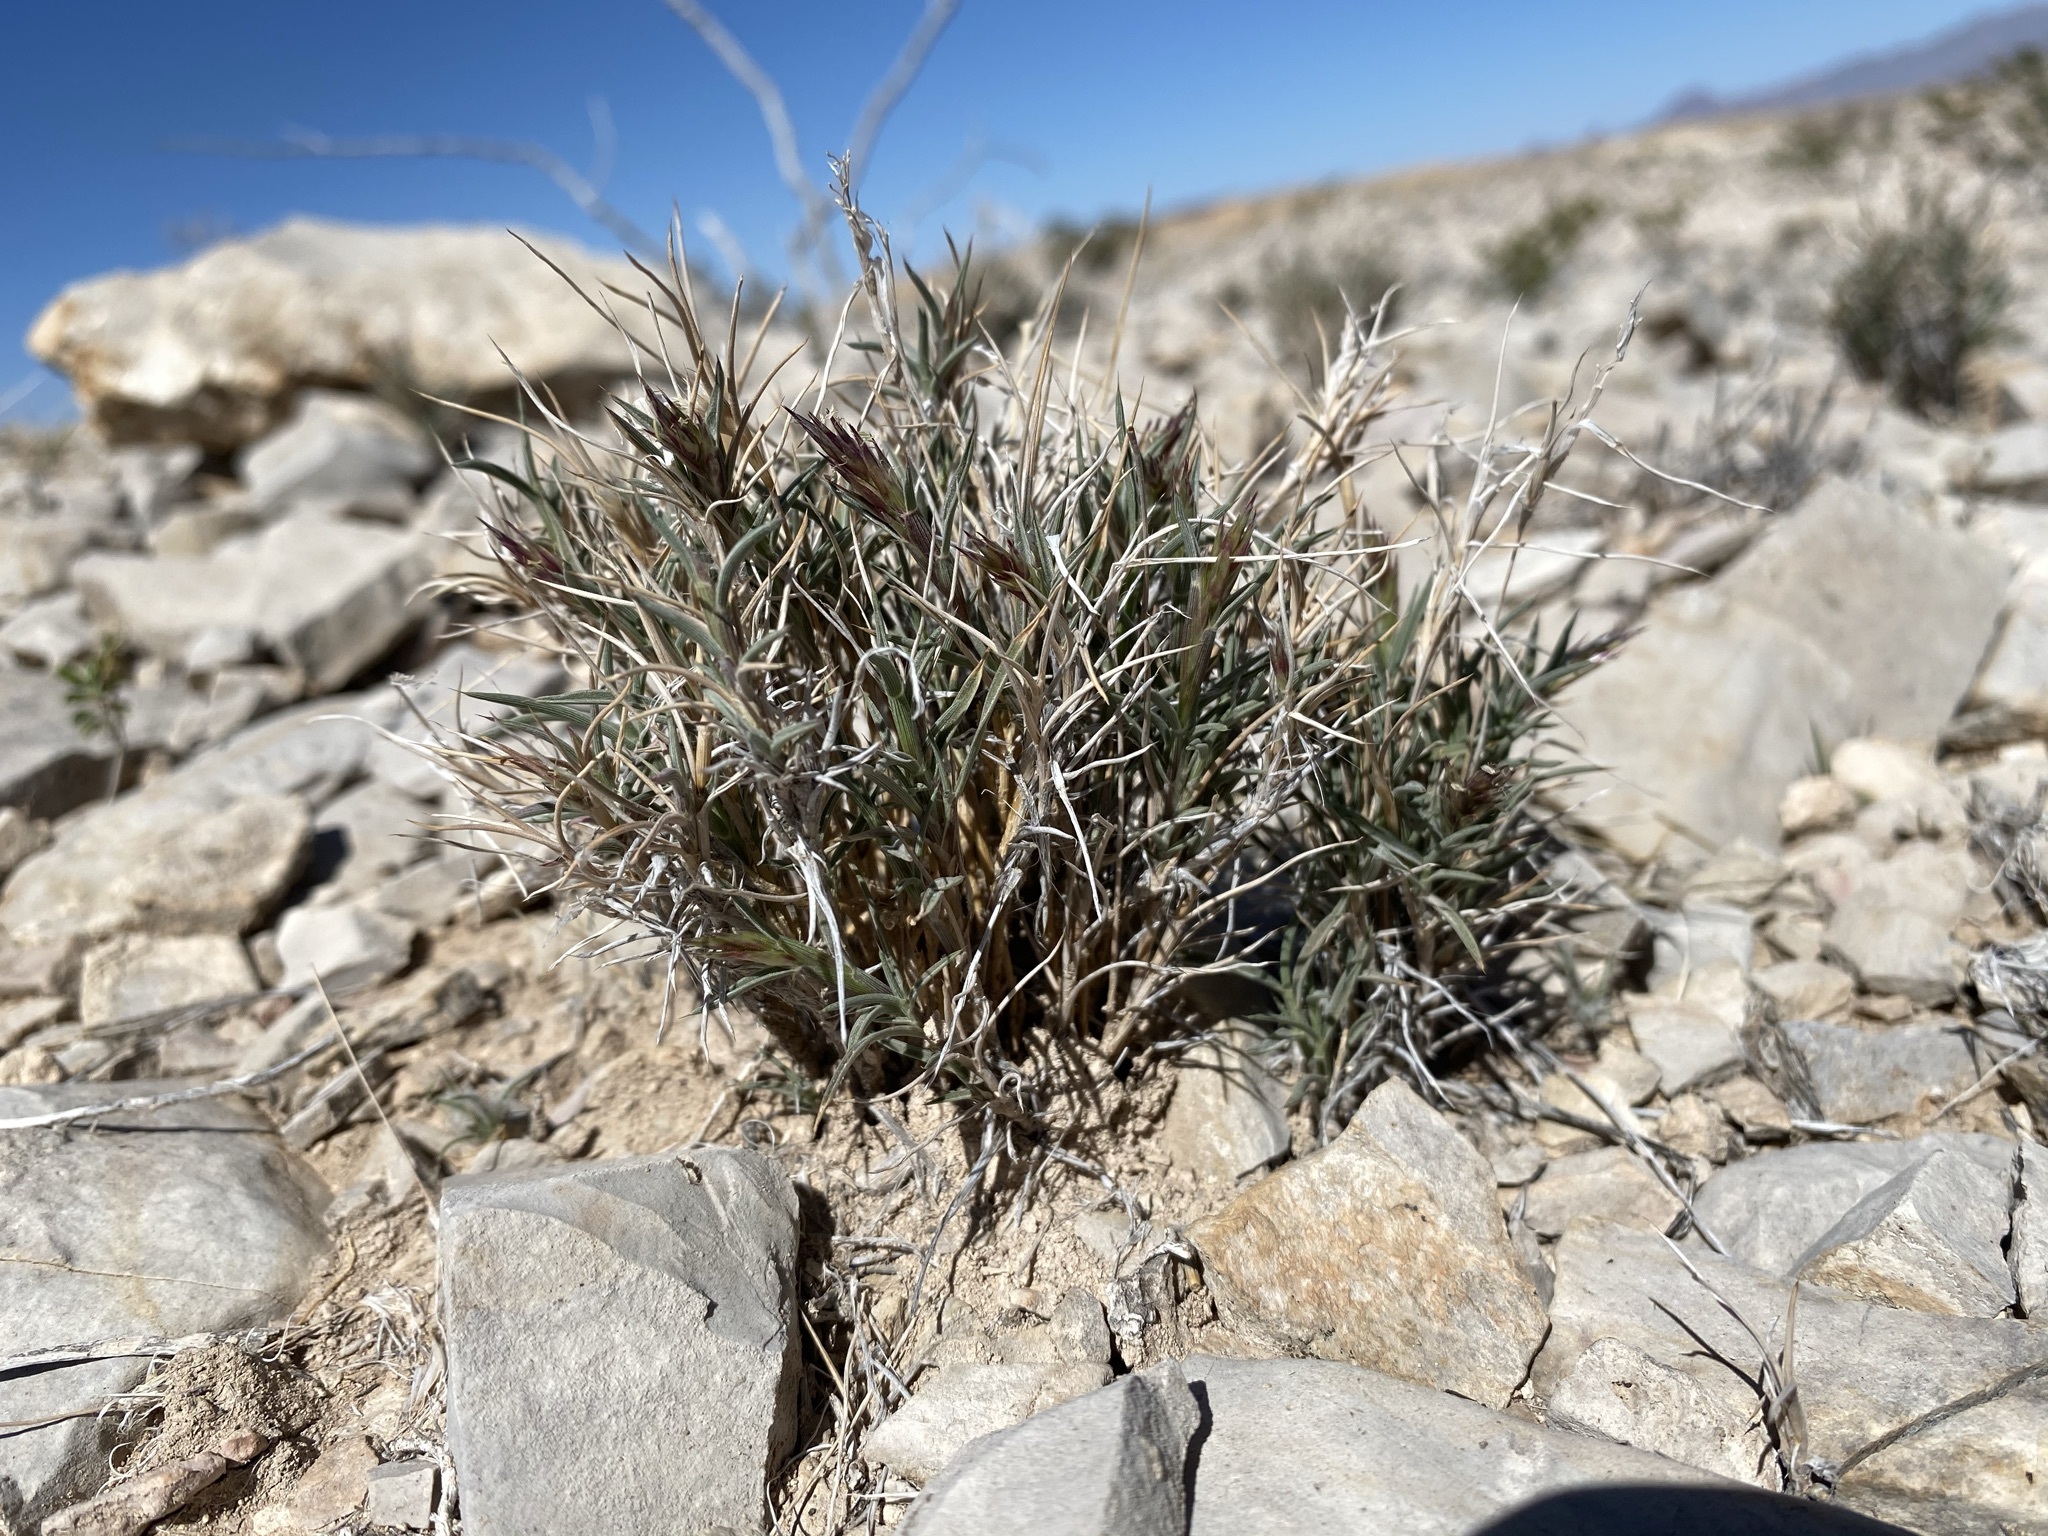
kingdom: Plantae
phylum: Tracheophyta
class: Liliopsida
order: Poales
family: Poaceae
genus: Blepharidachne
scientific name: Blepharidachne bigelovii
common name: Bigelow's desert grass
